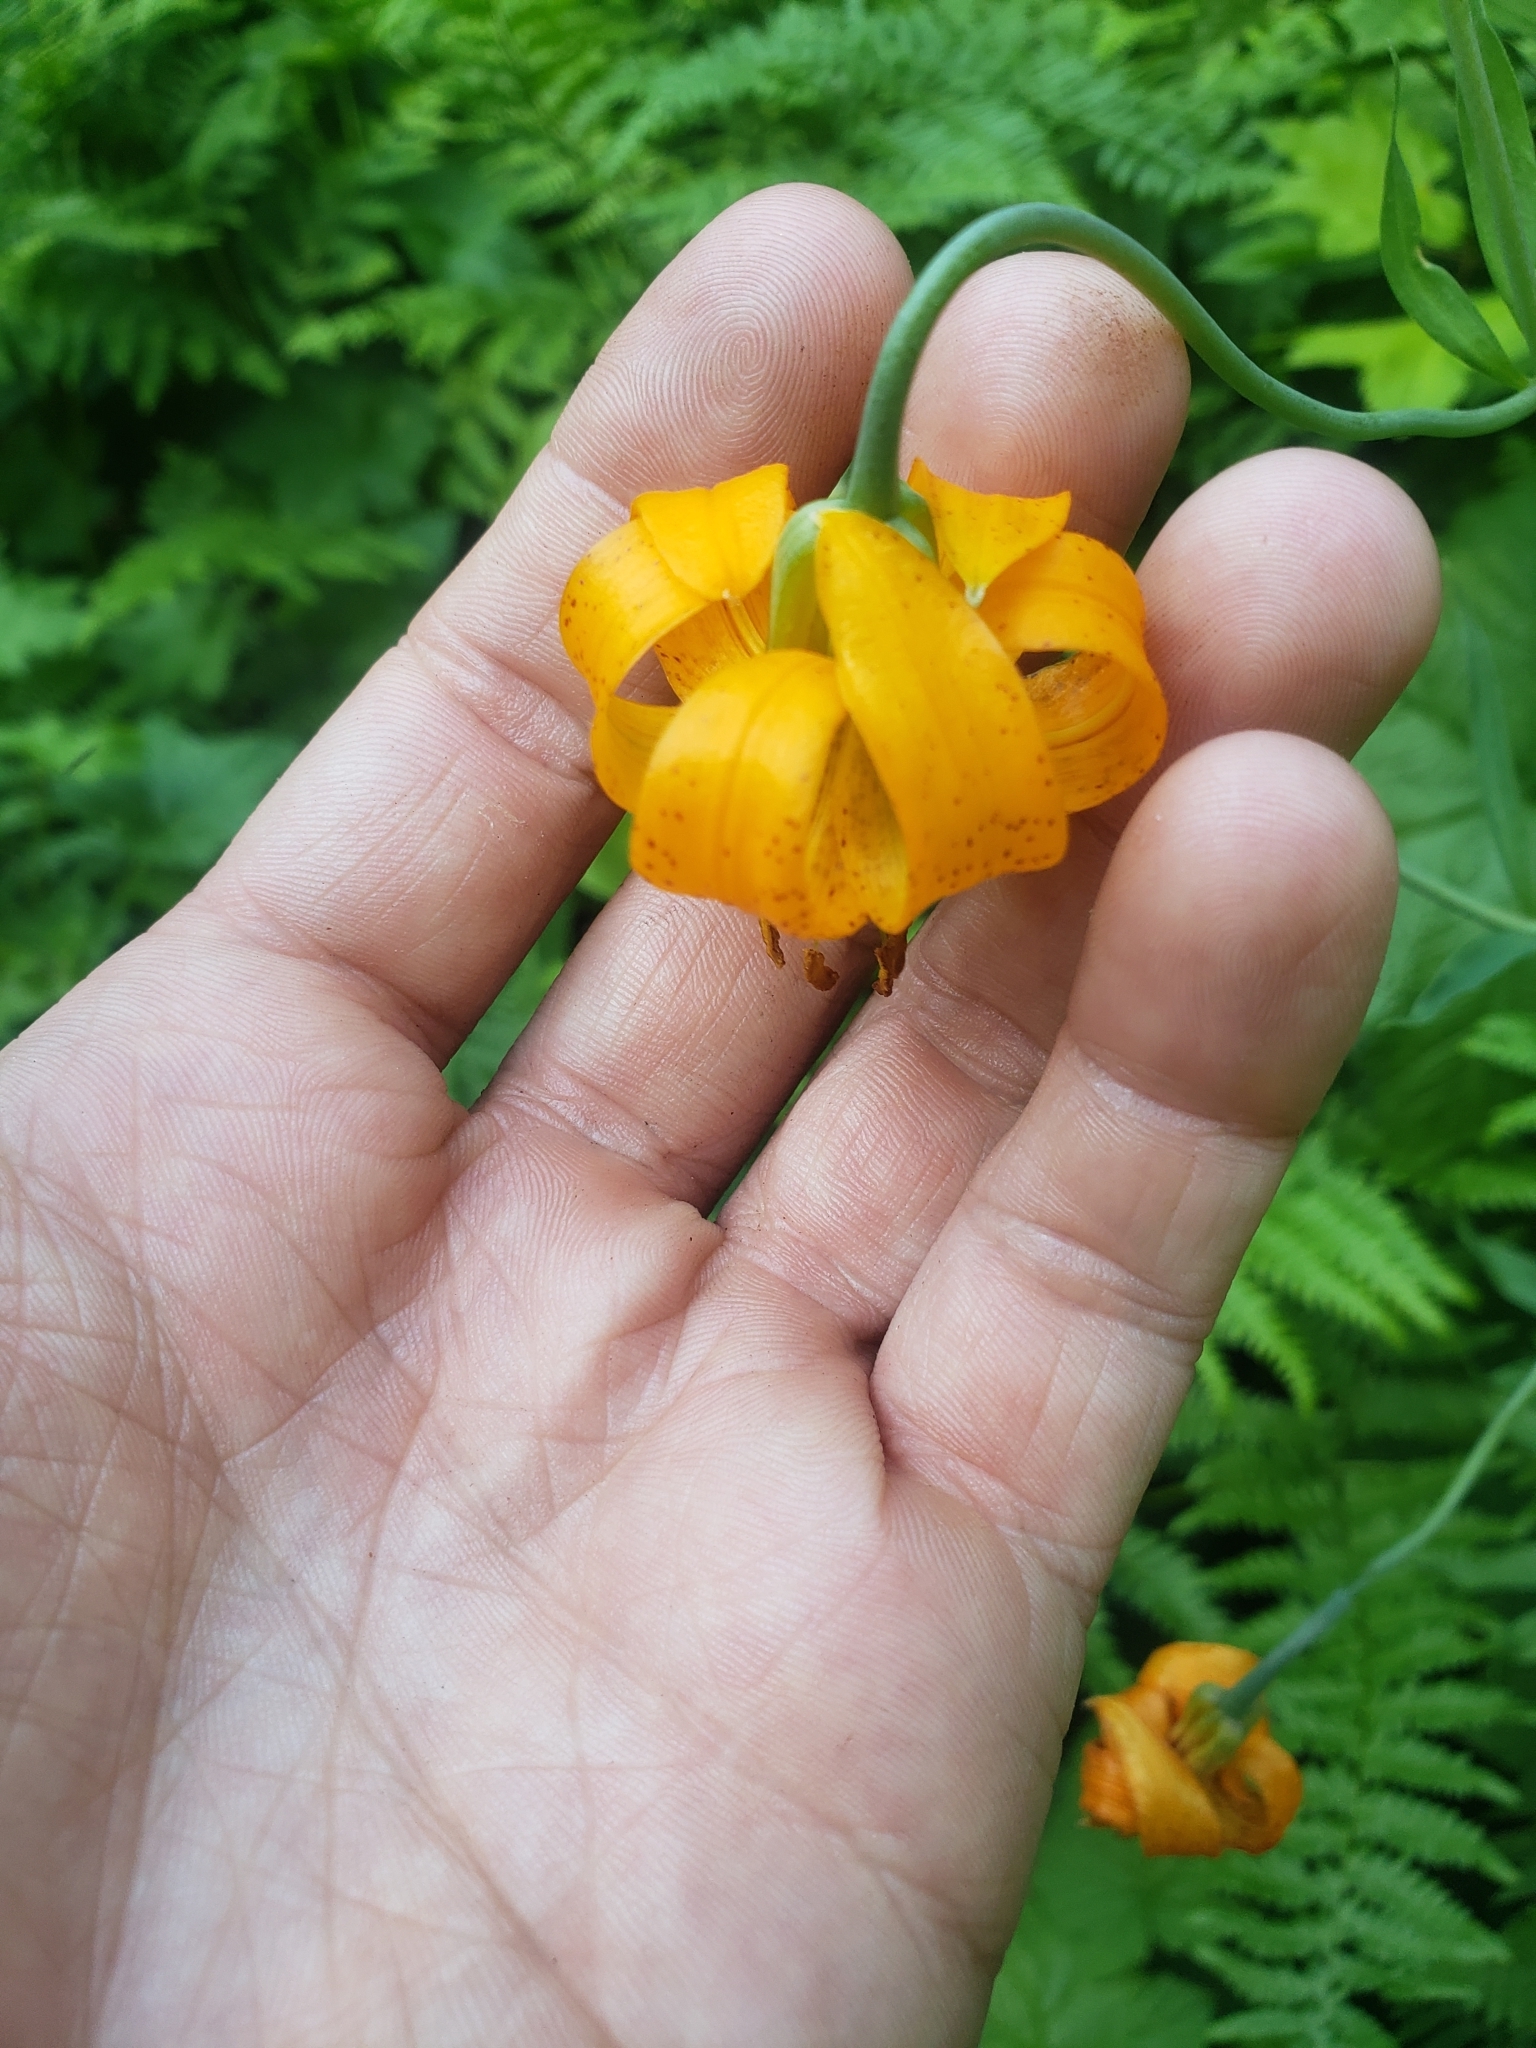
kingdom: Plantae
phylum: Tracheophyta
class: Liliopsida
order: Liliales
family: Liliaceae
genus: Lilium
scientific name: Lilium columbianum
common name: Columbia lily
